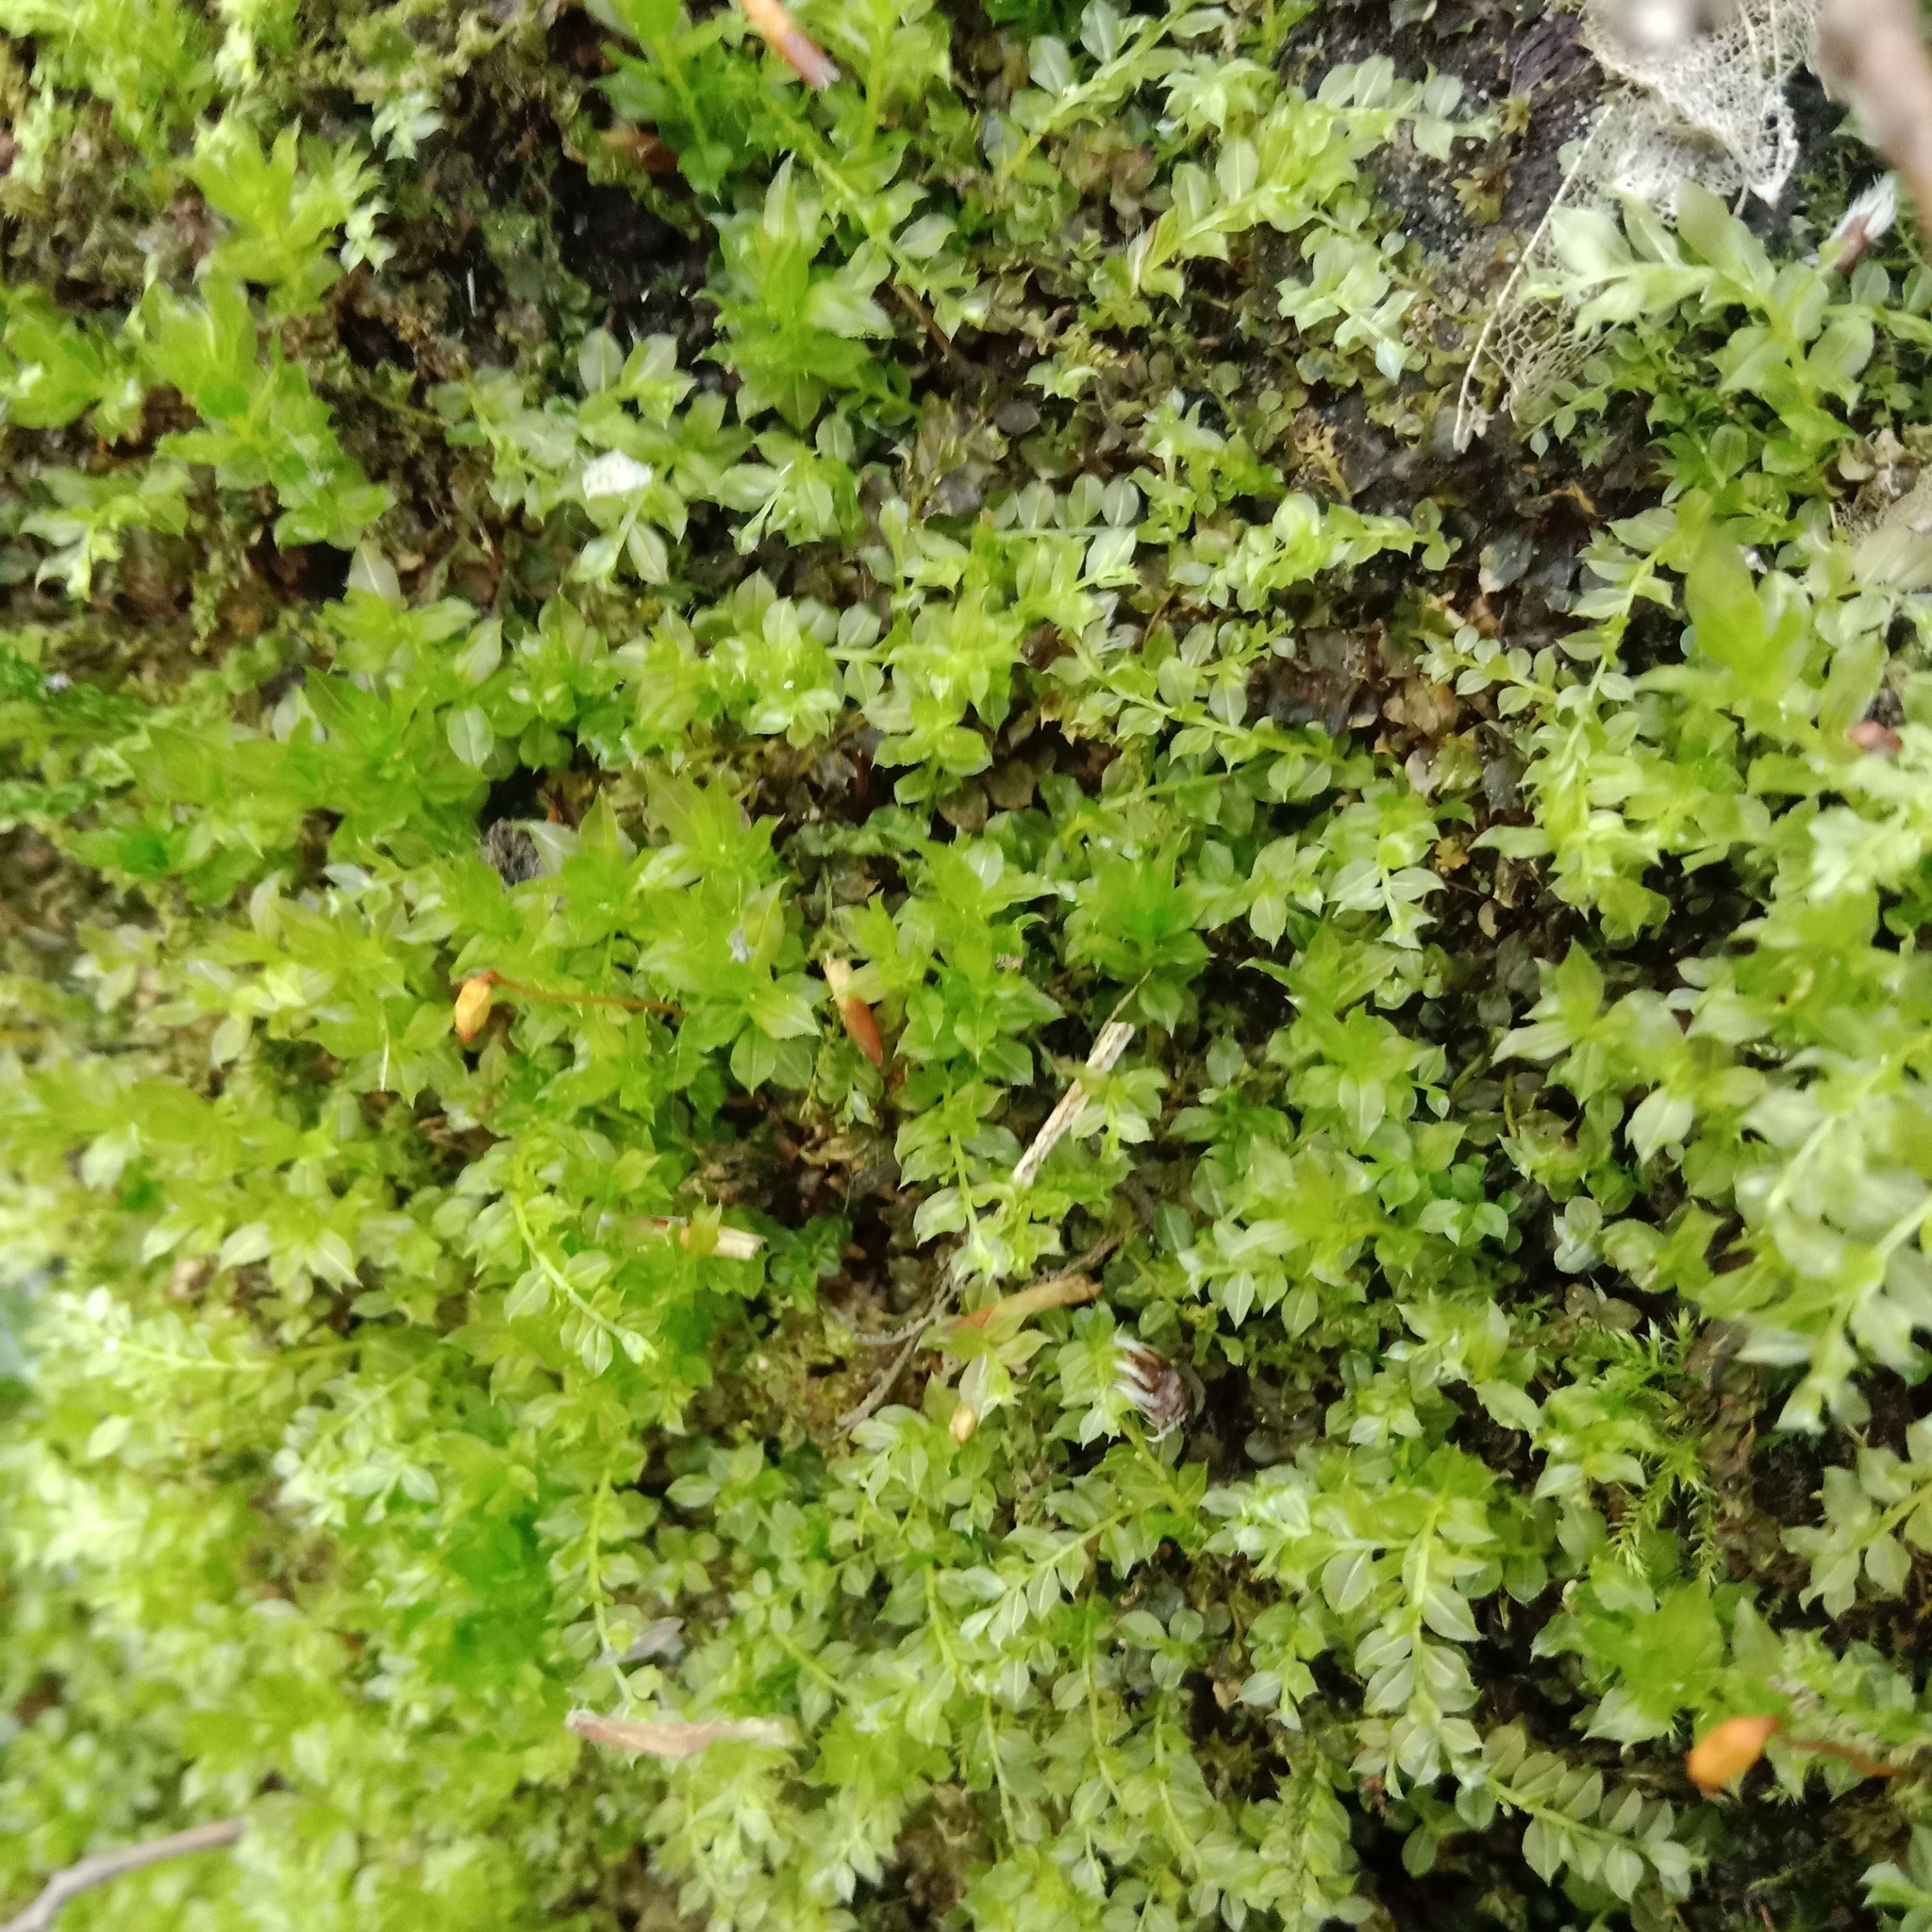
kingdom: Plantae
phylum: Bryophyta
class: Bryopsida
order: Bryales
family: Mniaceae
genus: Plagiomnium
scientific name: Plagiomnium cuspidatum
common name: Woodsy leafy moss
